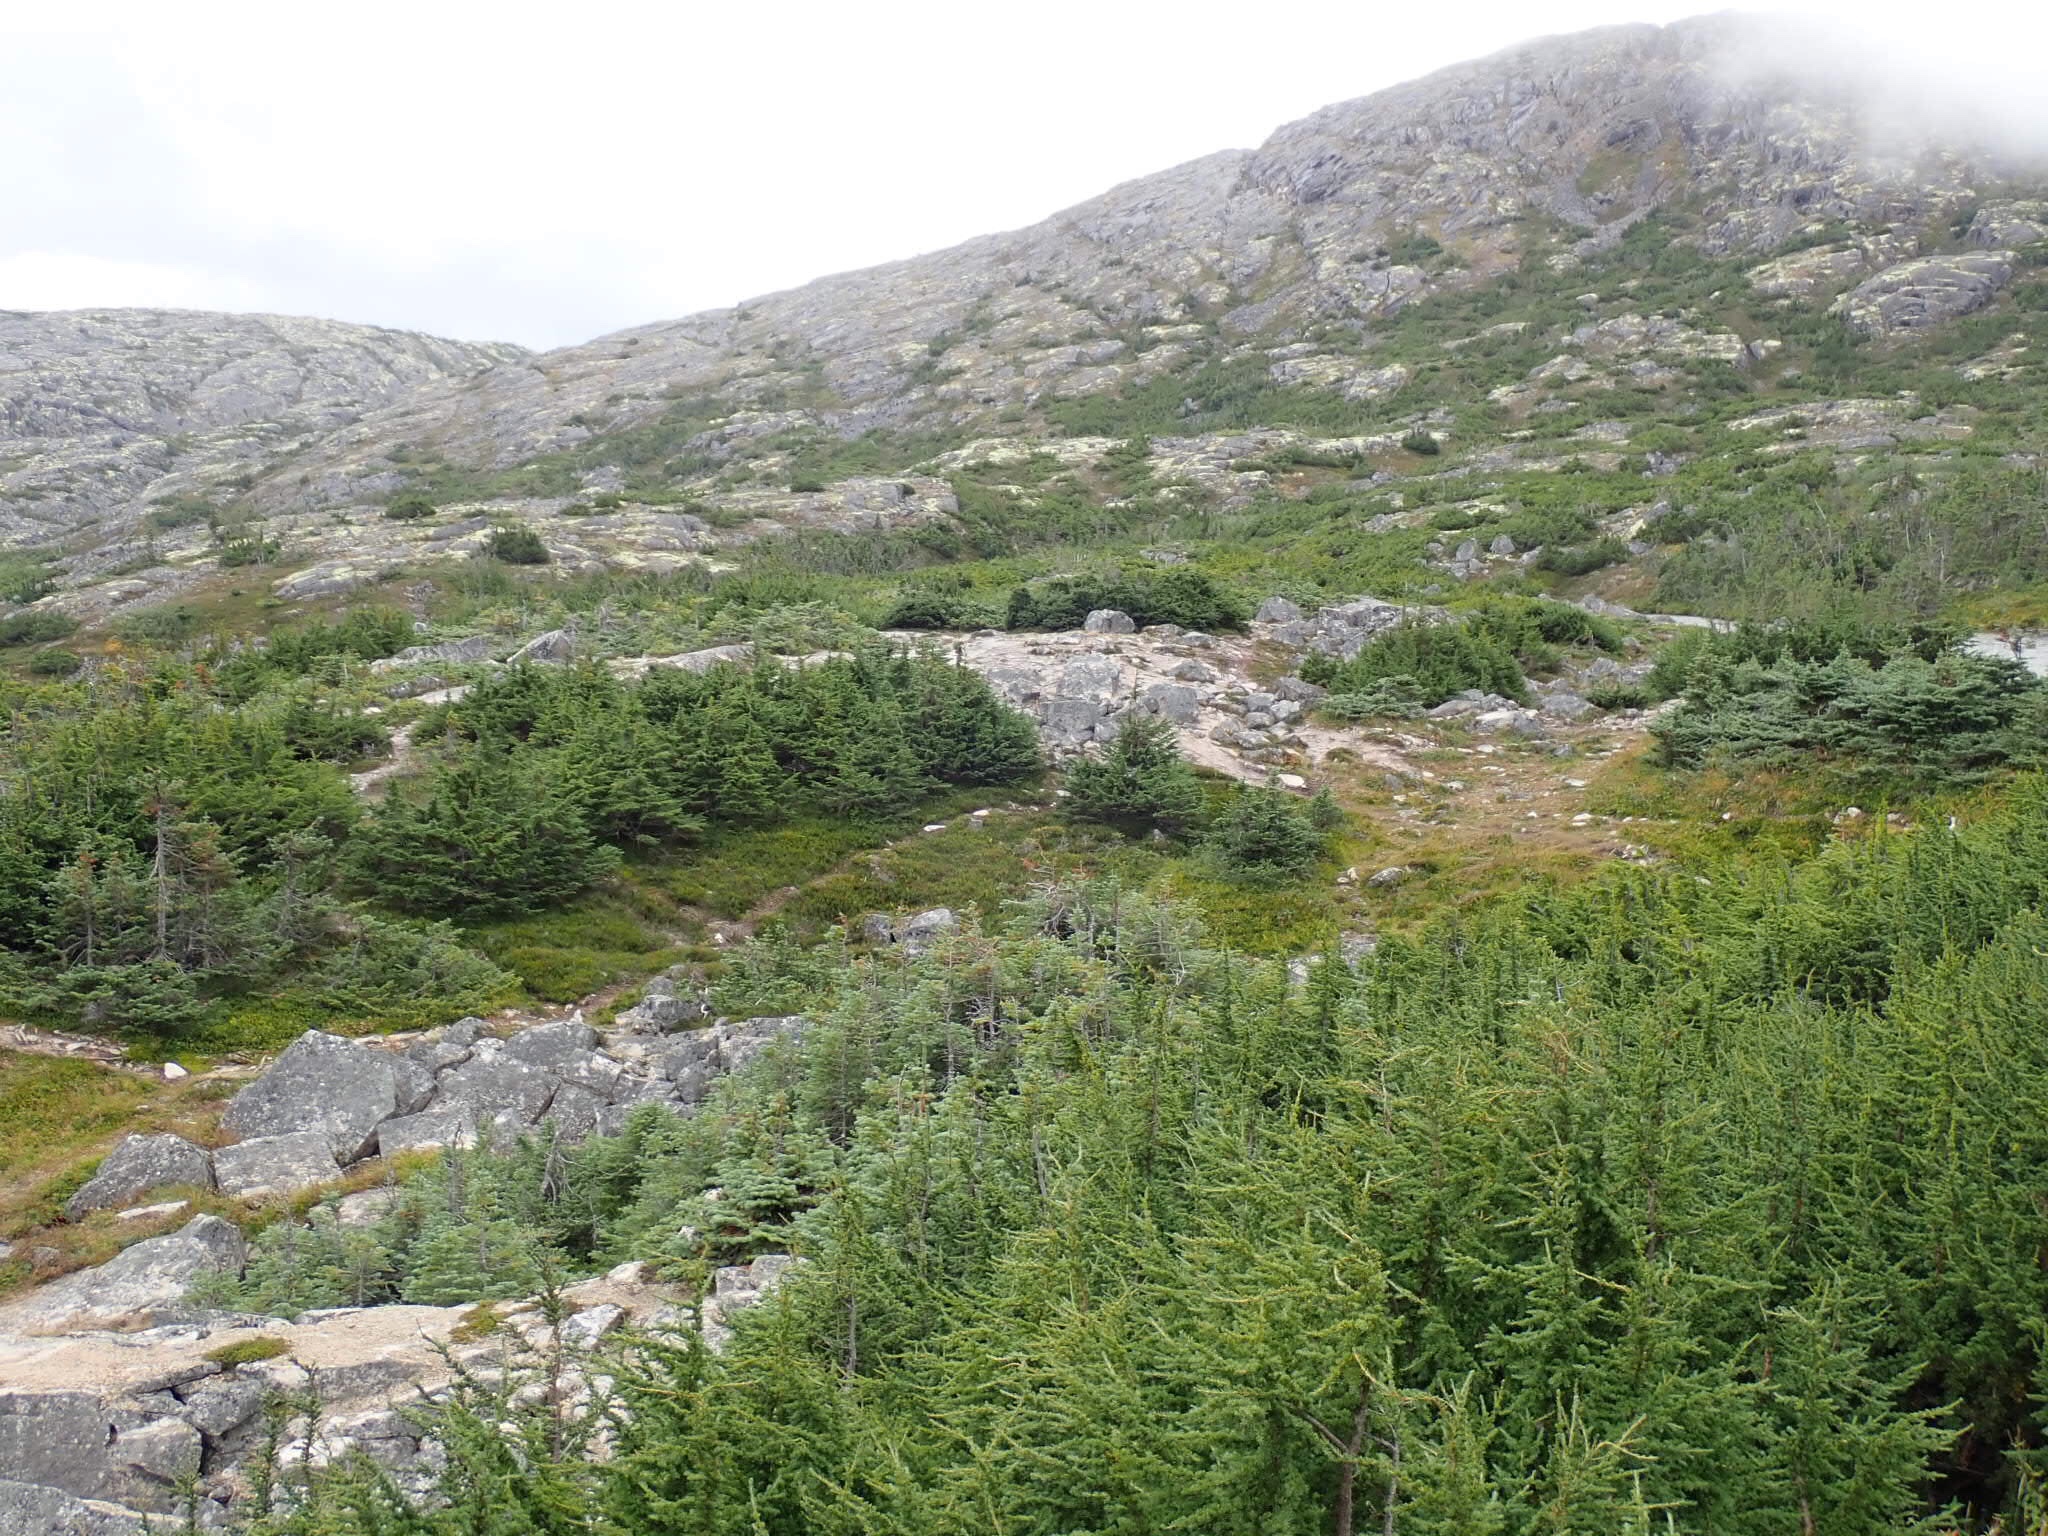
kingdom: Plantae
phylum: Tracheophyta
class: Pinopsida
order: Pinales
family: Pinaceae
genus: Abies
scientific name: Abies lasiocarpa
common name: Subalpine fir
